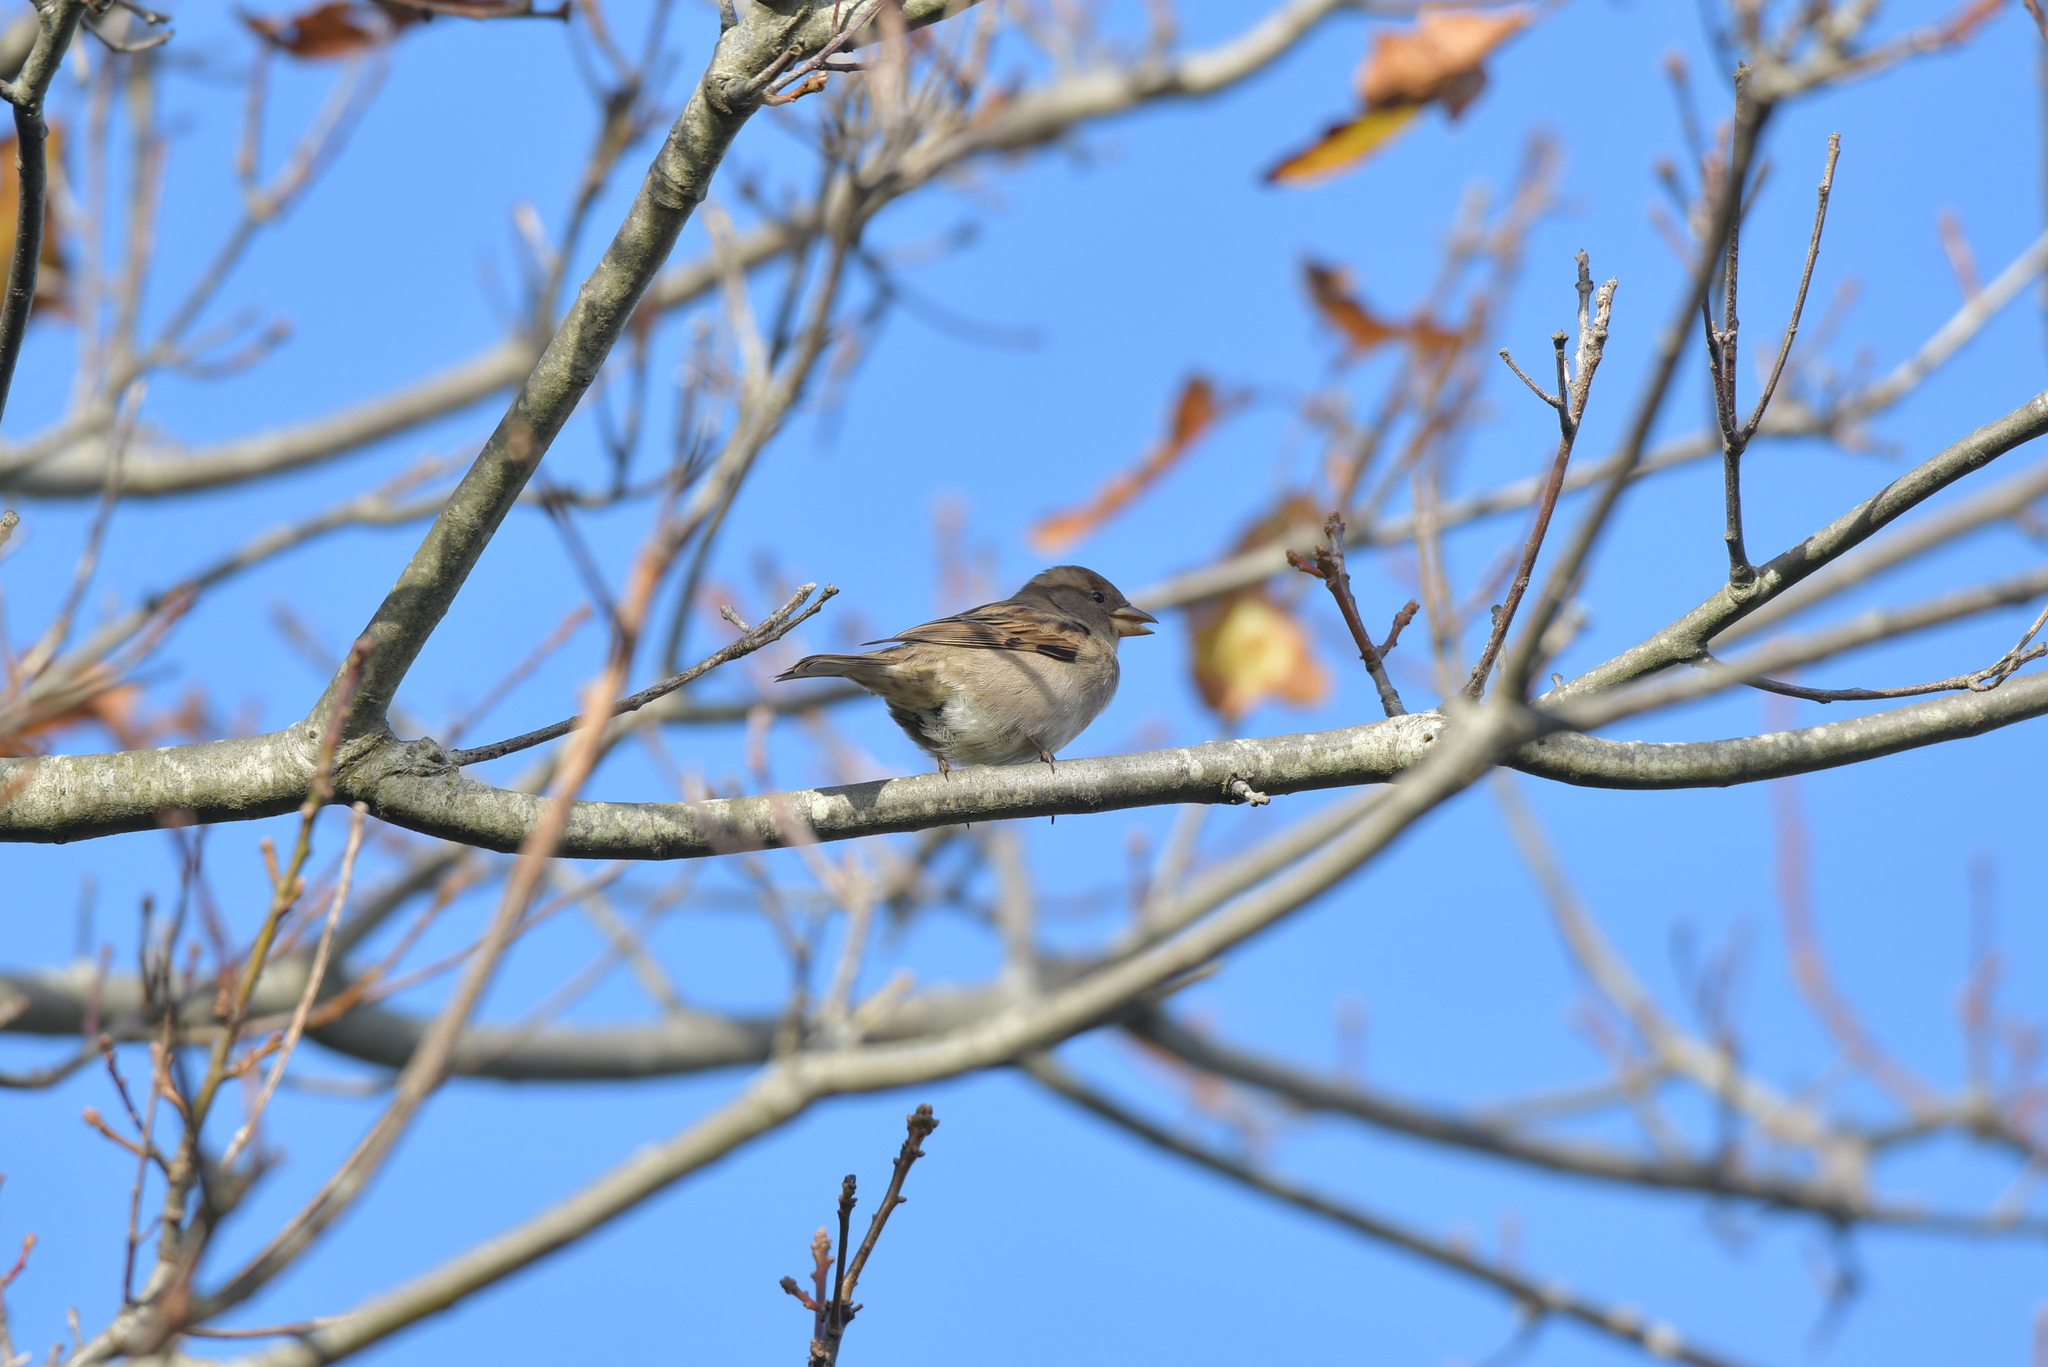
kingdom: Animalia
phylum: Chordata
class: Aves
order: Passeriformes
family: Passeridae
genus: Passer
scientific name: Passer domesticus
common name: House sparrow
